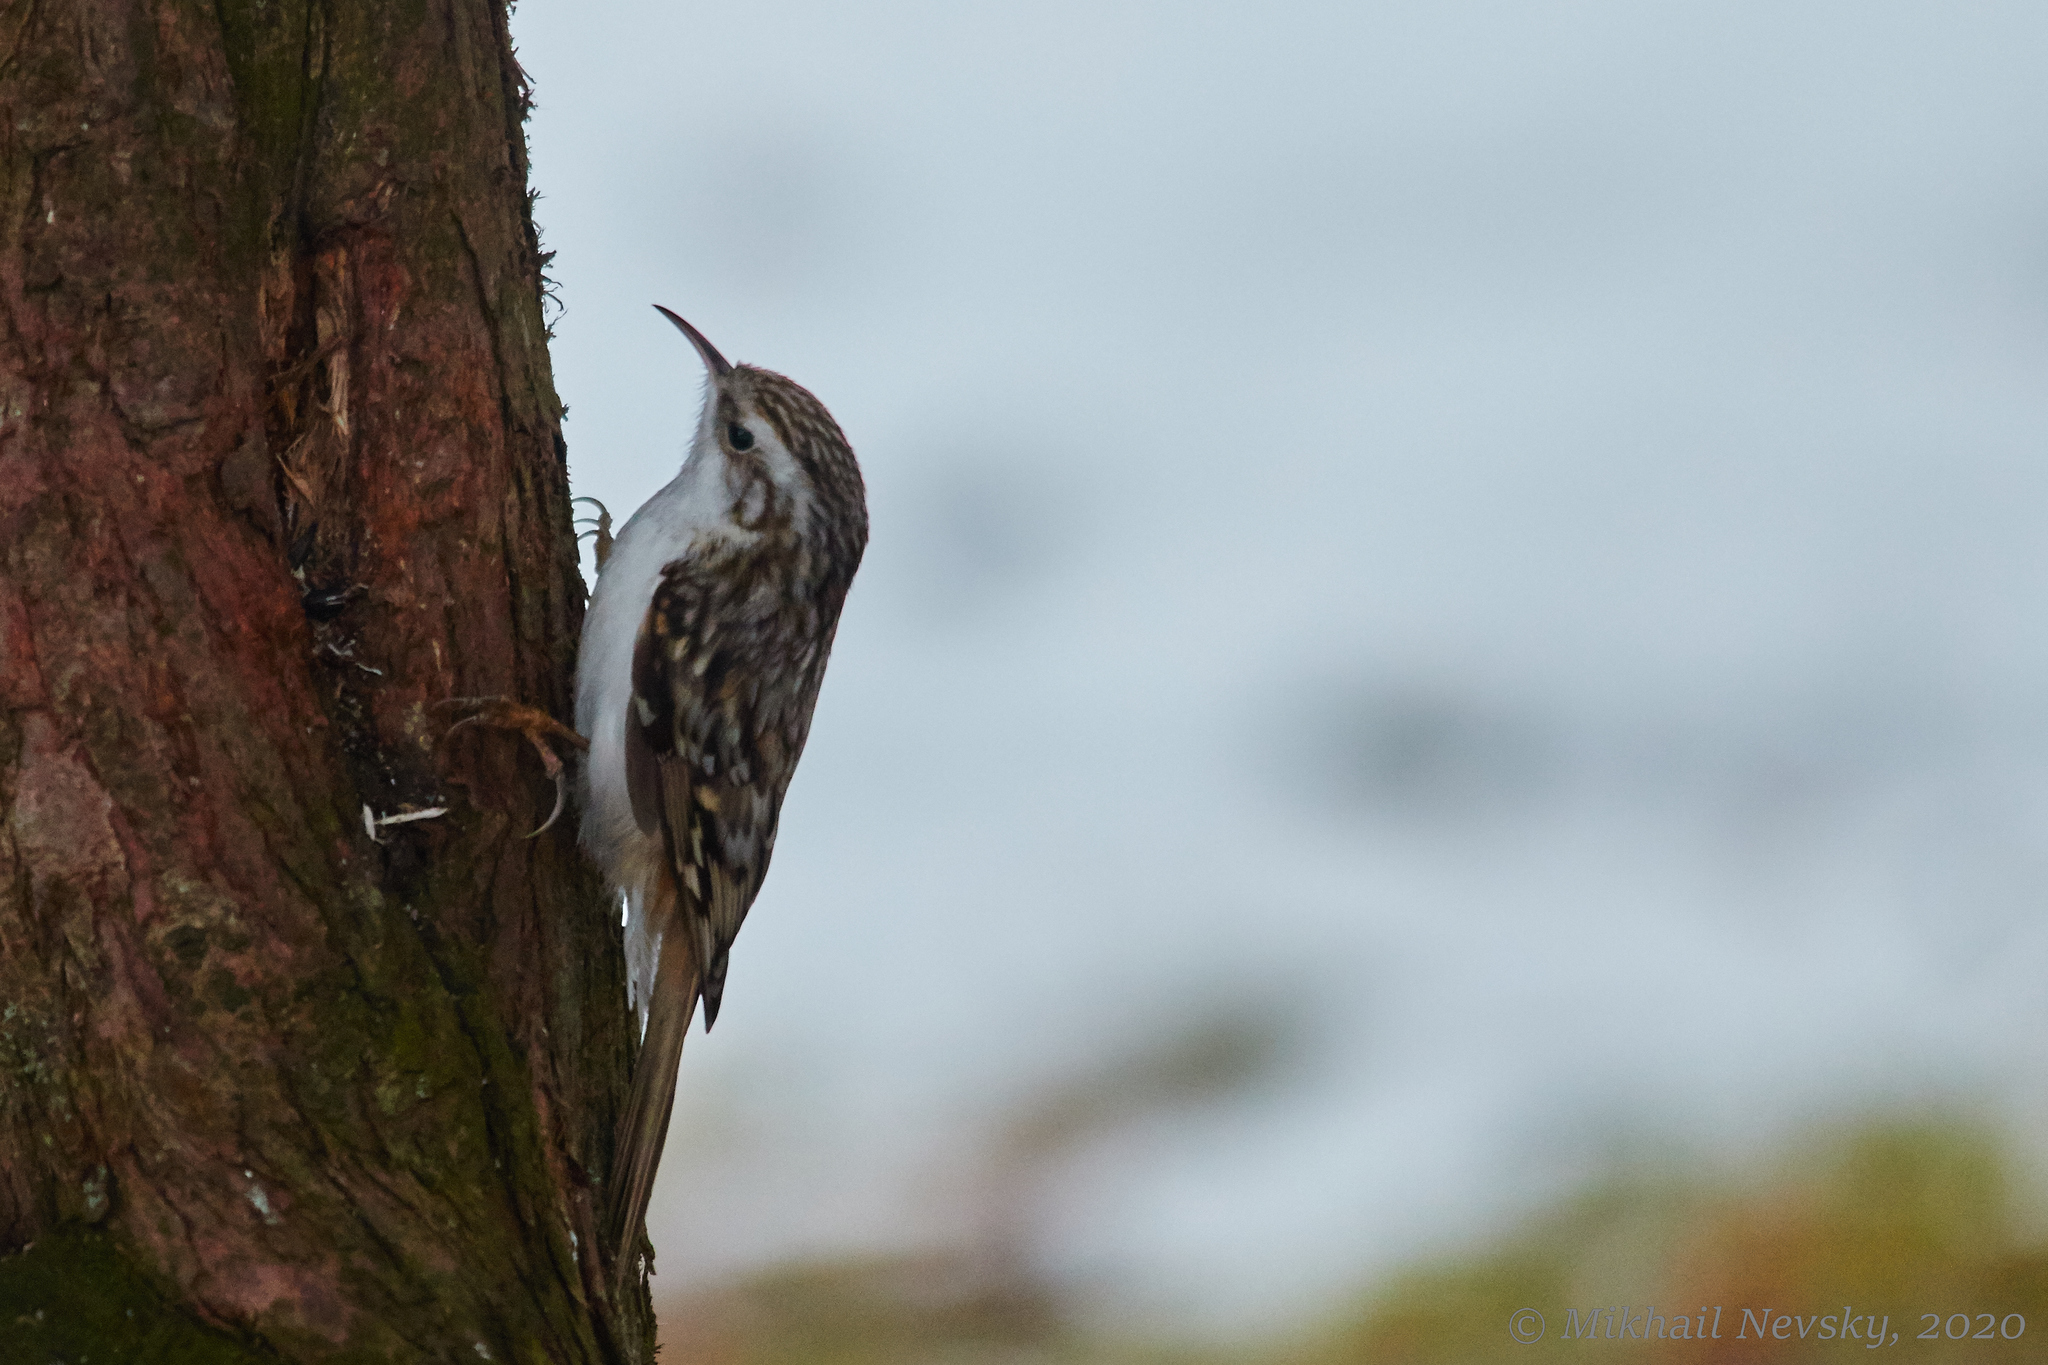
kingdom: Animalia
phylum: Chordata
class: Aves
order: Passeriformes
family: Certhiidae
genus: Certhia
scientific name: Certhia familiaris
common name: Eurasian treecreeper
